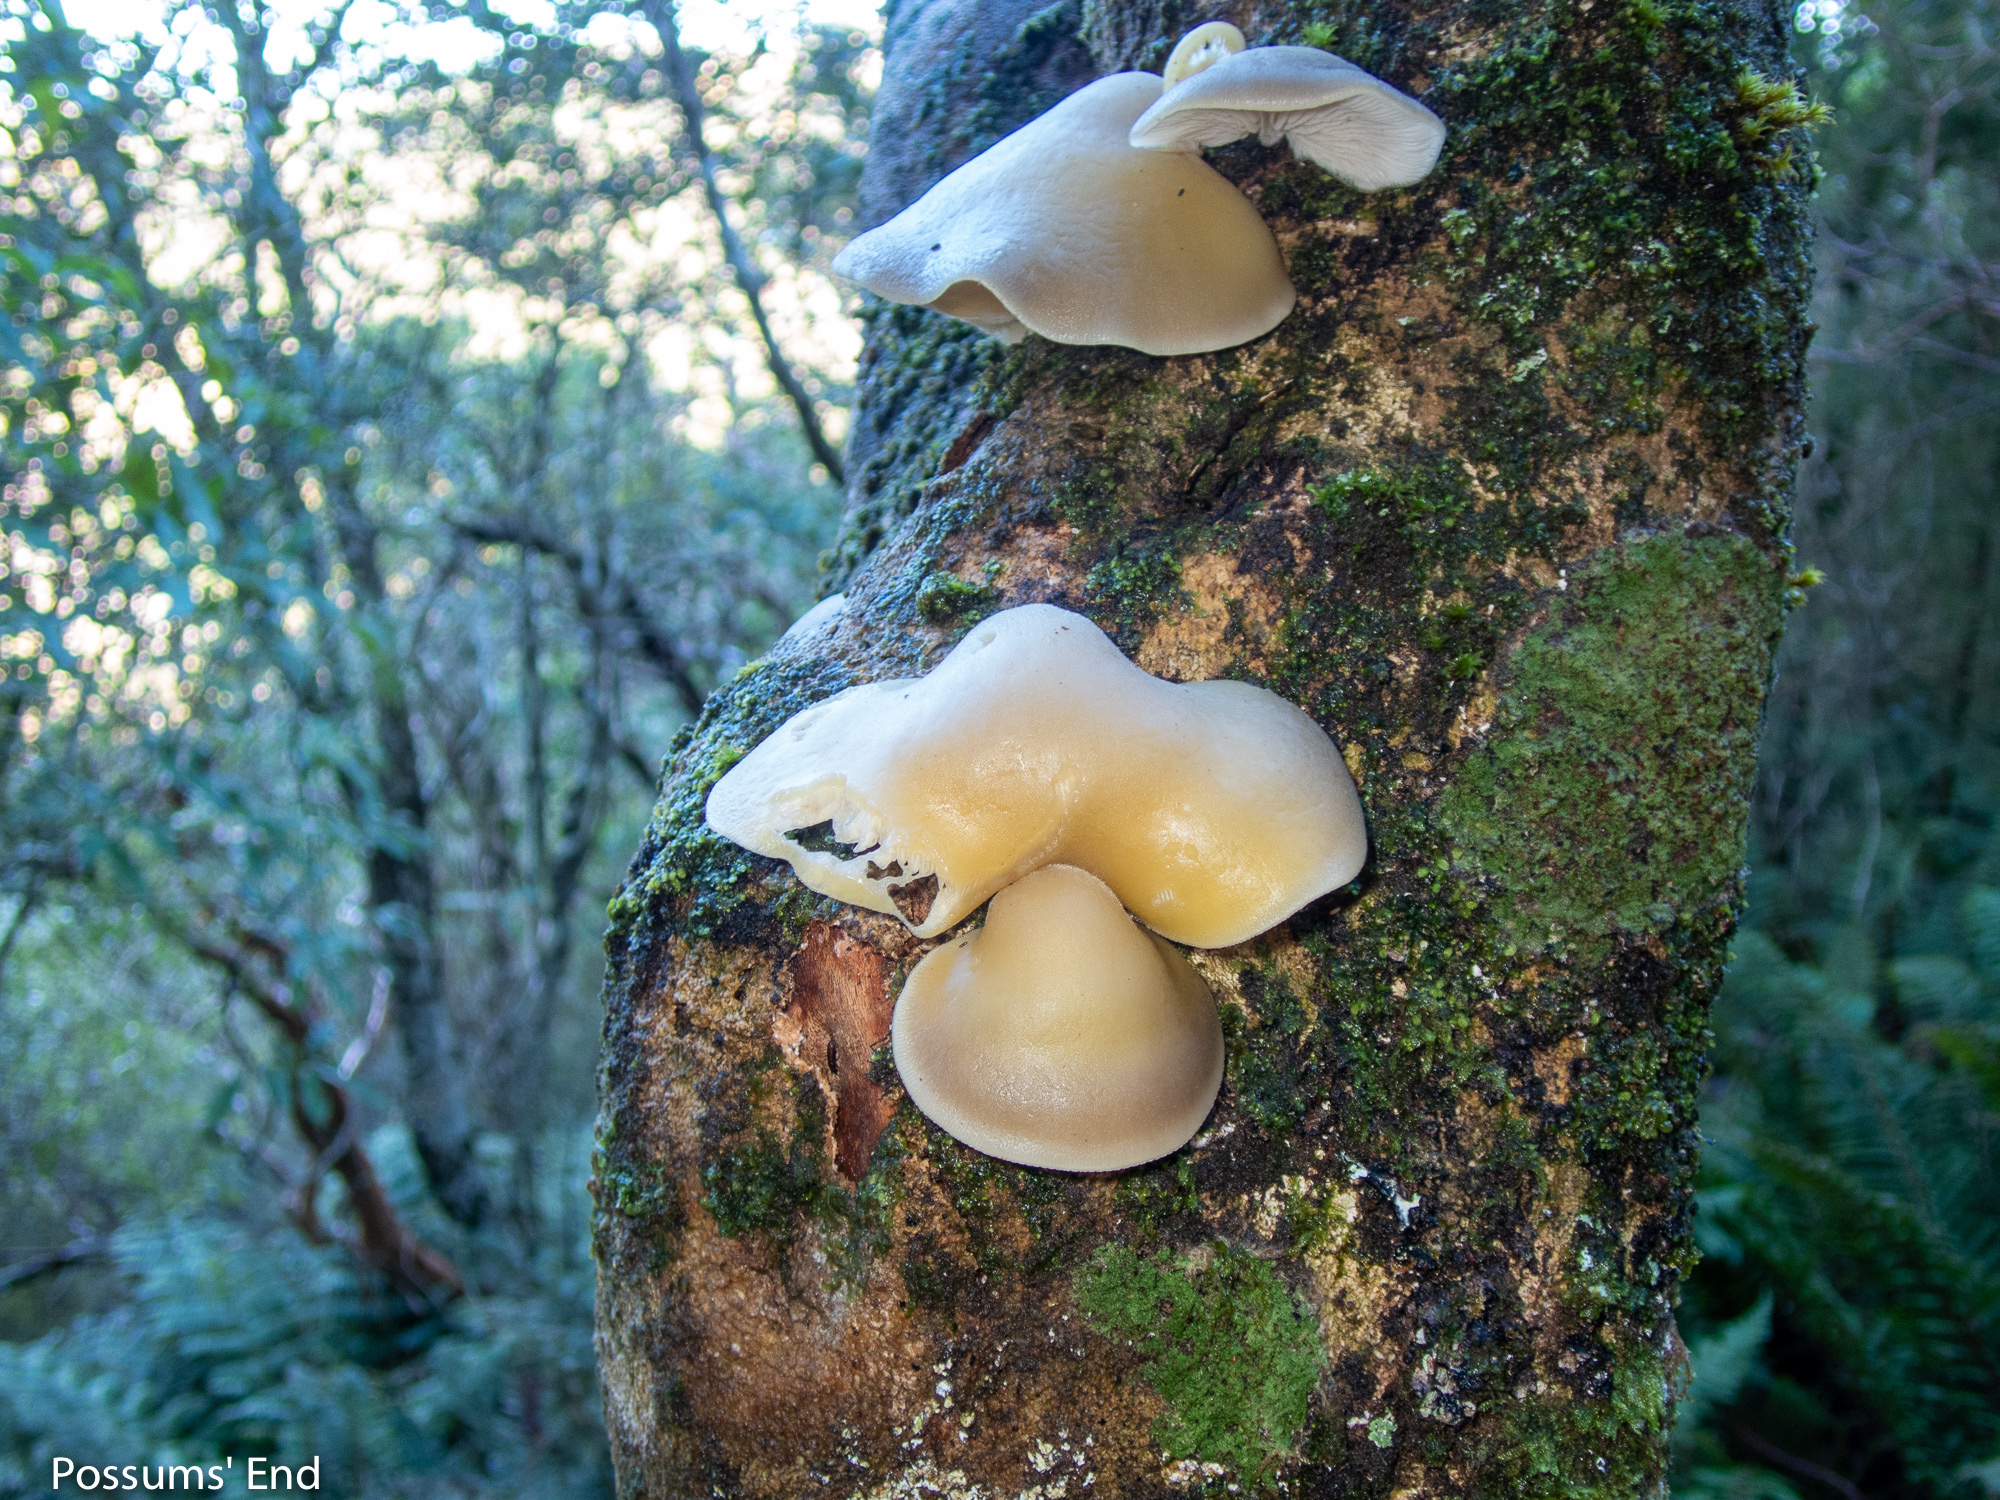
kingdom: Fungi
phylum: Basidiomycota
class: Agaricomycetes
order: Agaricales
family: Tricholomataceae
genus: Conchomyces
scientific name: Conchomyces bursiformis
